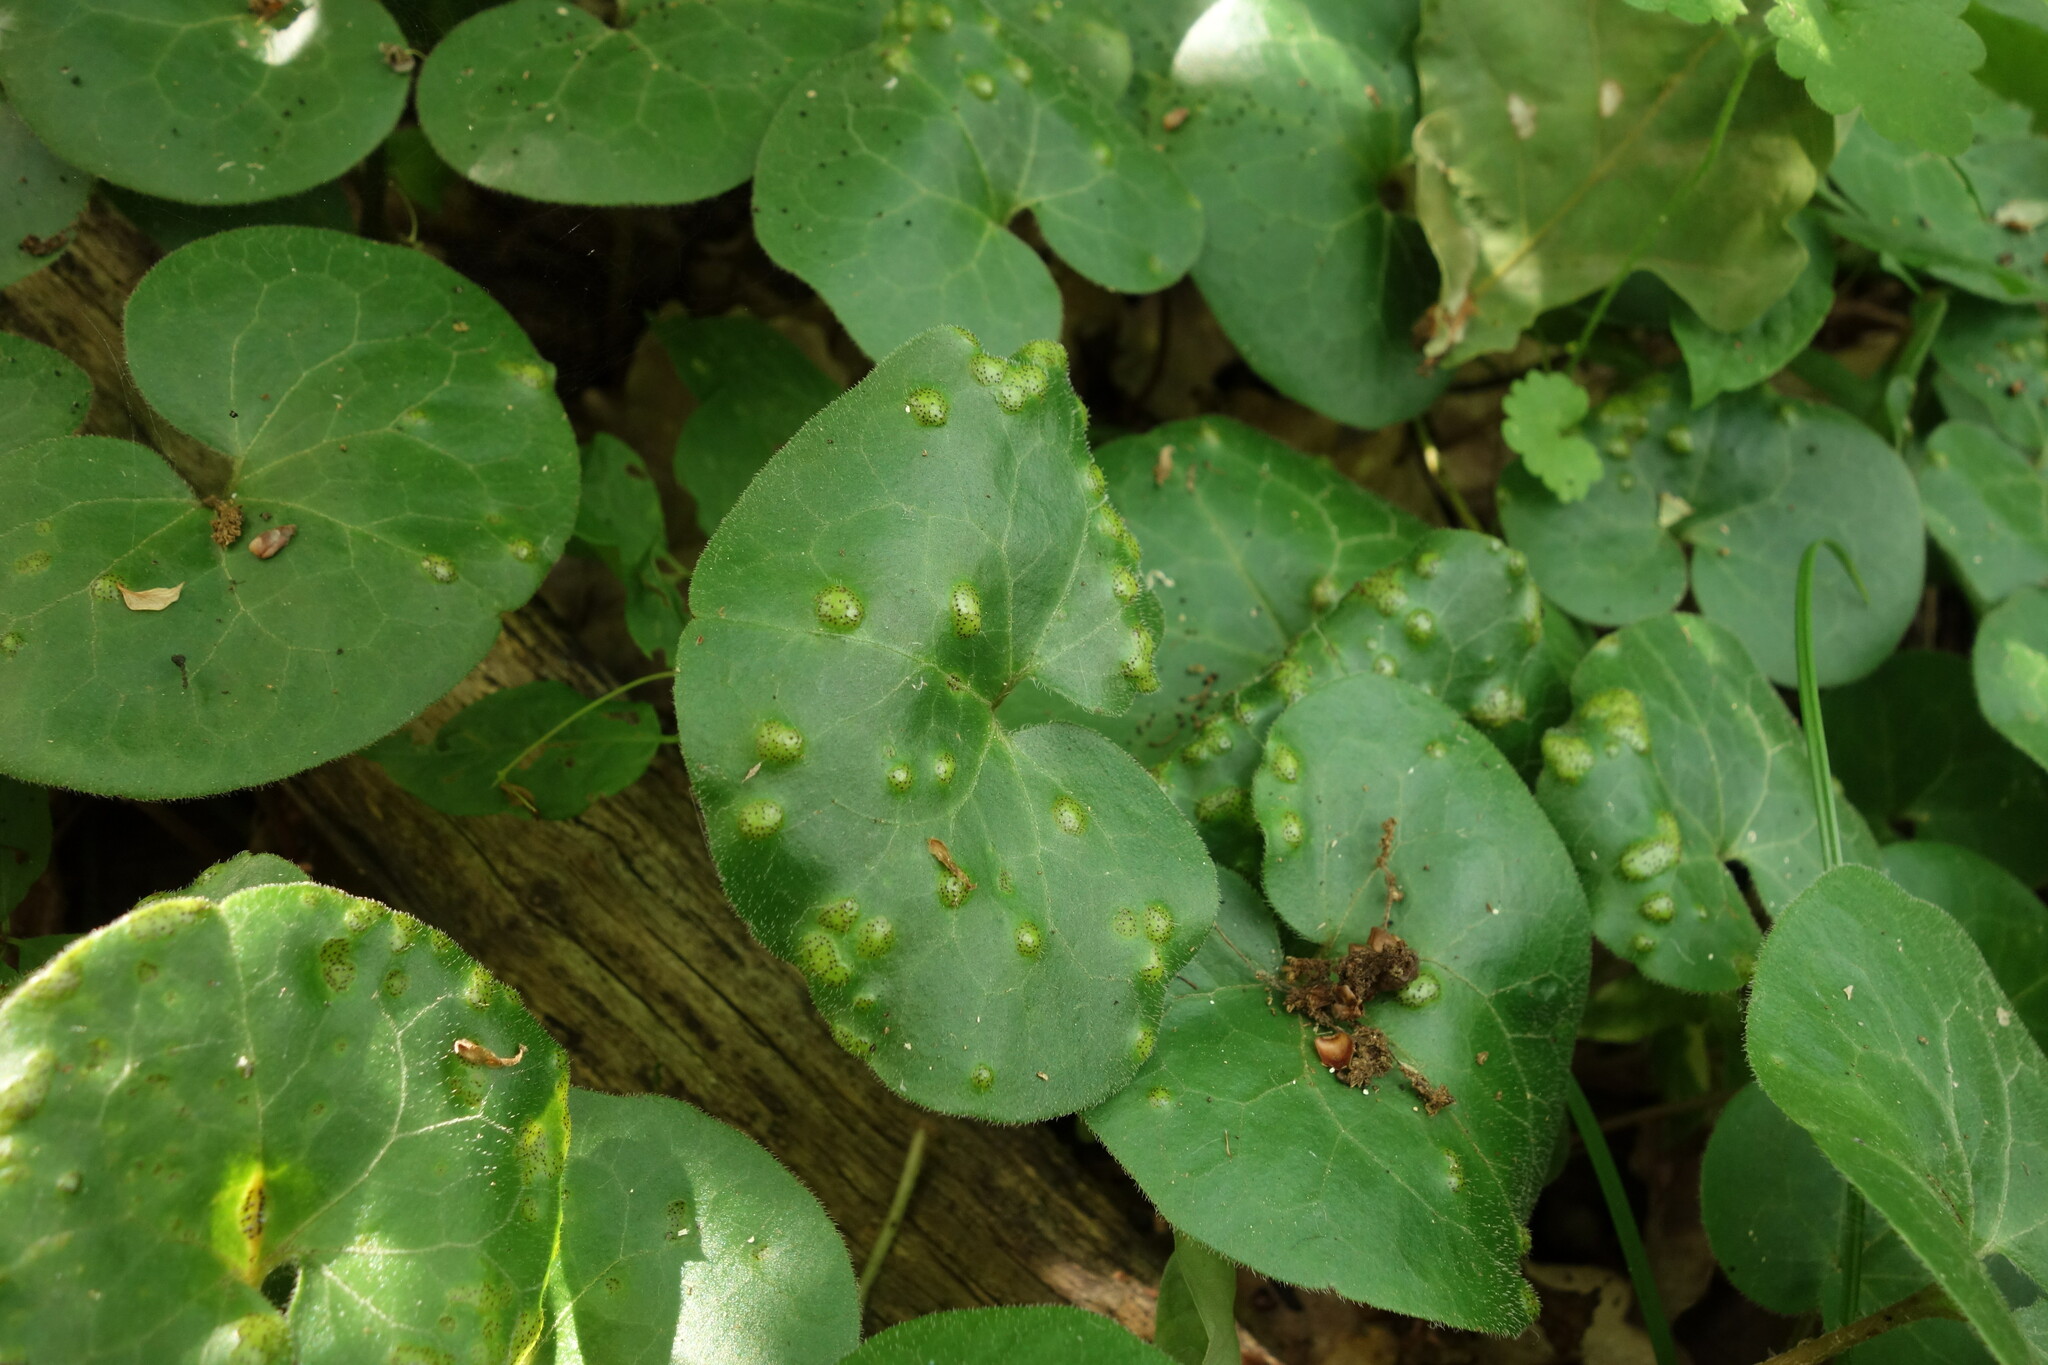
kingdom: Fungi
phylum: Basidiomycota
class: Pucciniomycetes
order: Pucciniales
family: Pucciniaceae
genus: Puccinia
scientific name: Puccinia asarina
